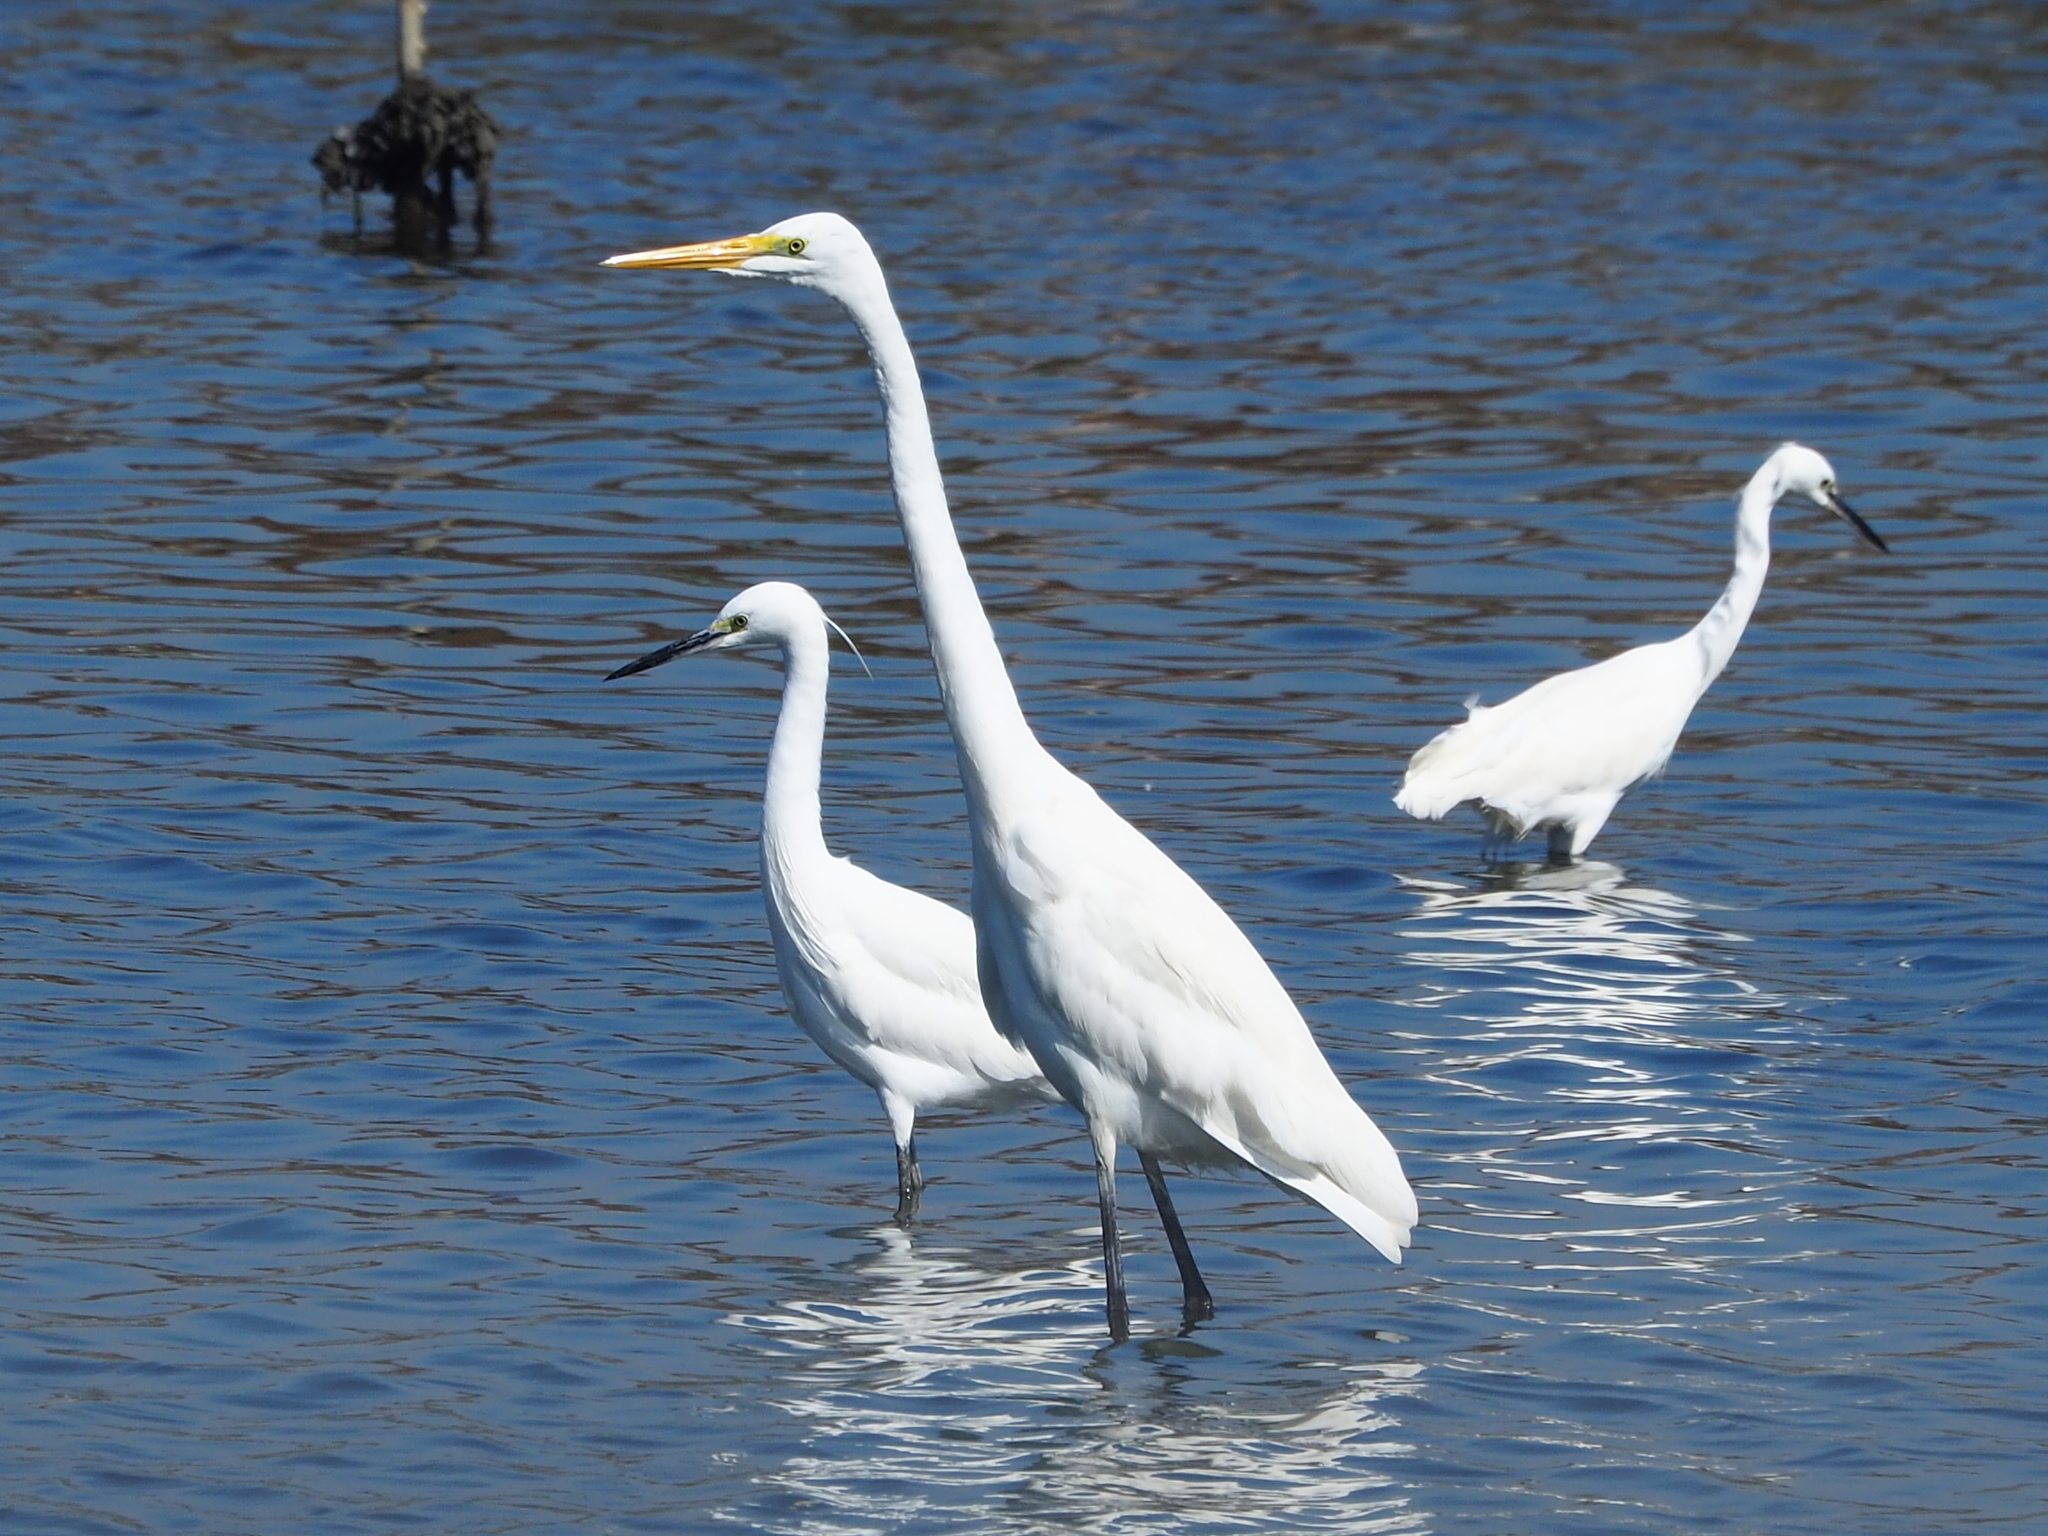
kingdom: Animalia
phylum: Chordata
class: Aves
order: Pelecaniformes
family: Ardeidae
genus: Ardea
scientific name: Ardea alba
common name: Great egret
